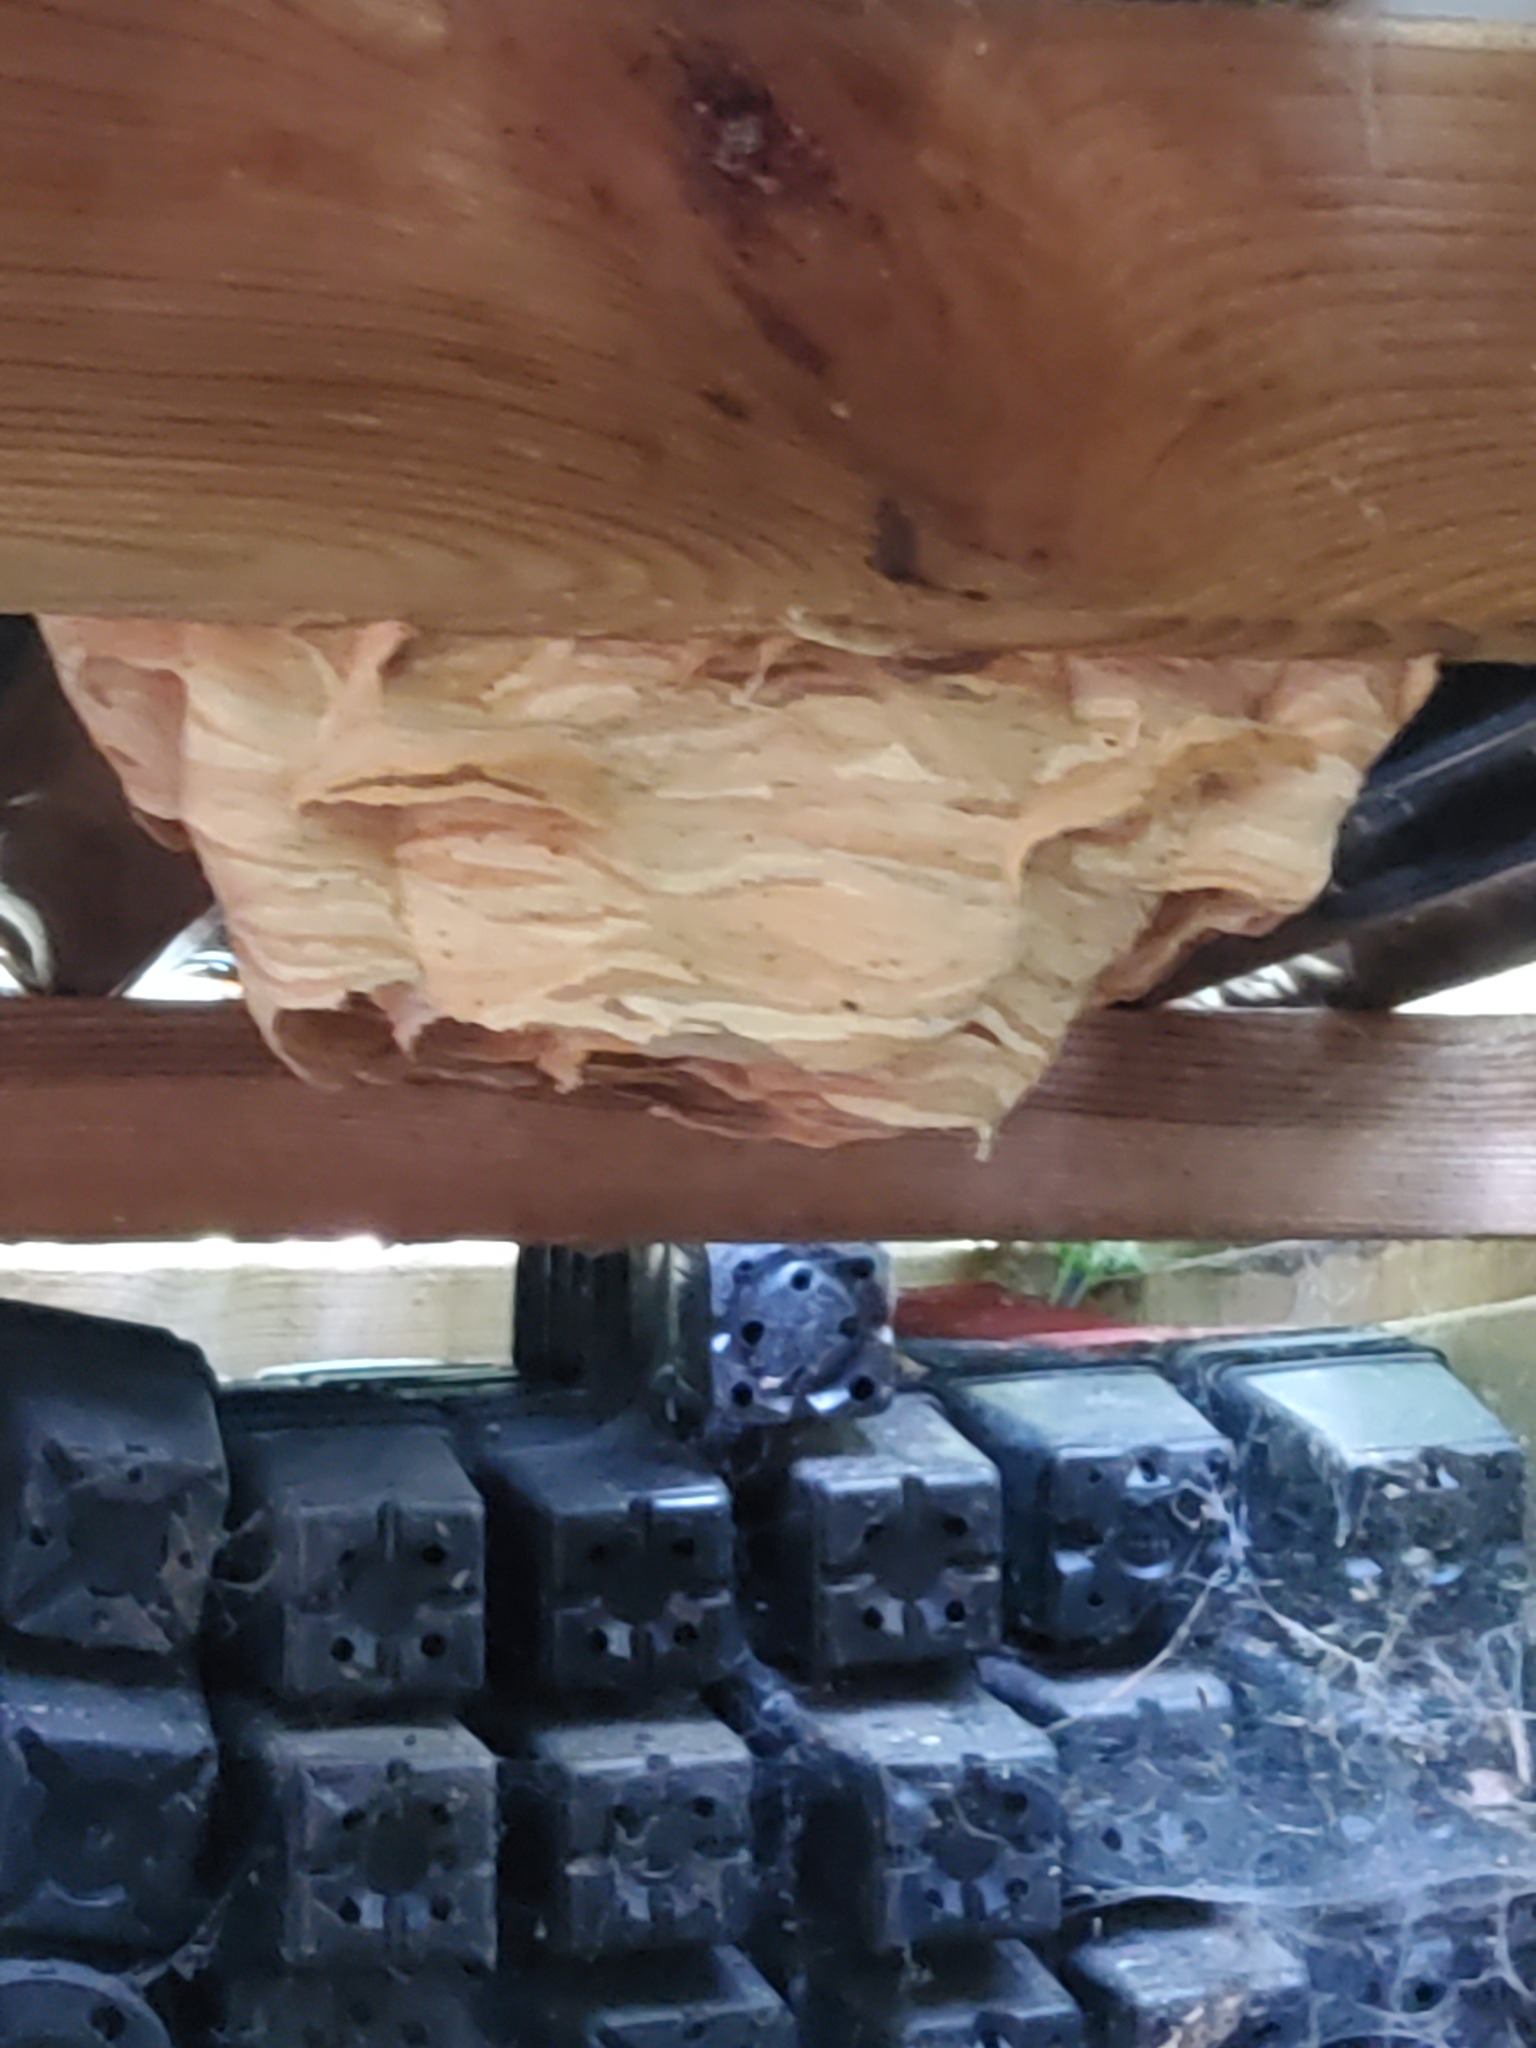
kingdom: Animalia
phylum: Arthropoda
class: Insecta
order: Hymenoptera
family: Vespidae
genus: Vespa
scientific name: Vespa crabro
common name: Hornet
